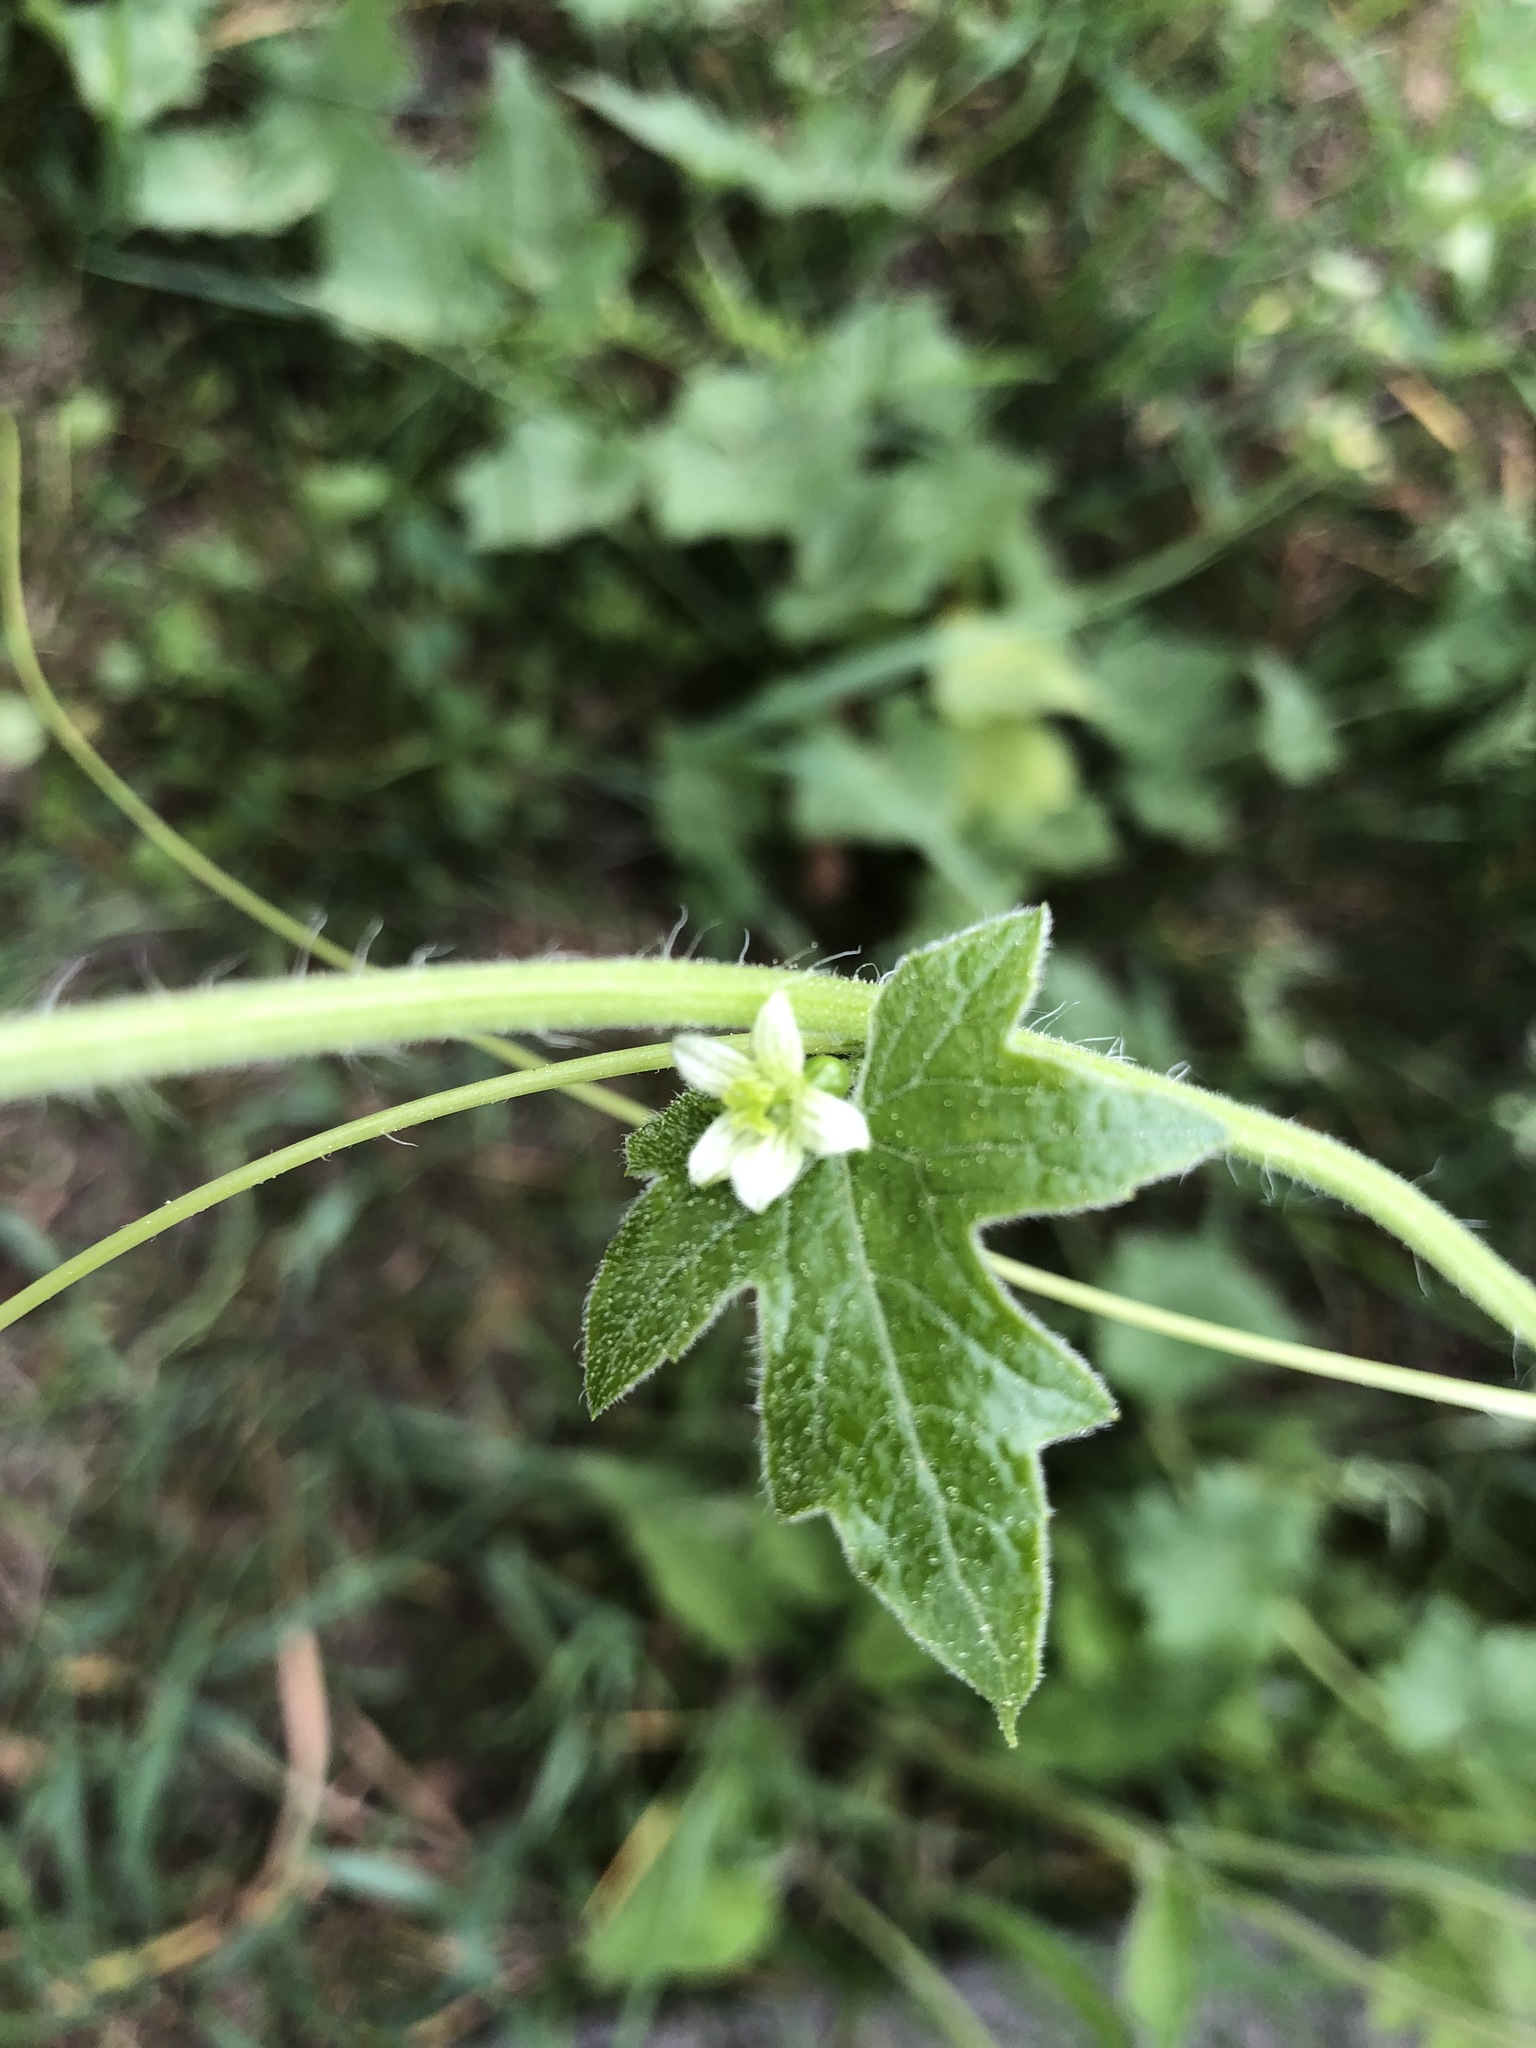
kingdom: Plantae
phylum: Tracheophyta
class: Magnoliopsida
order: Cucurbitales
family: Cucurbitaceae
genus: Bryonia
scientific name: Bryonia cretica
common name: Cretan bryony
